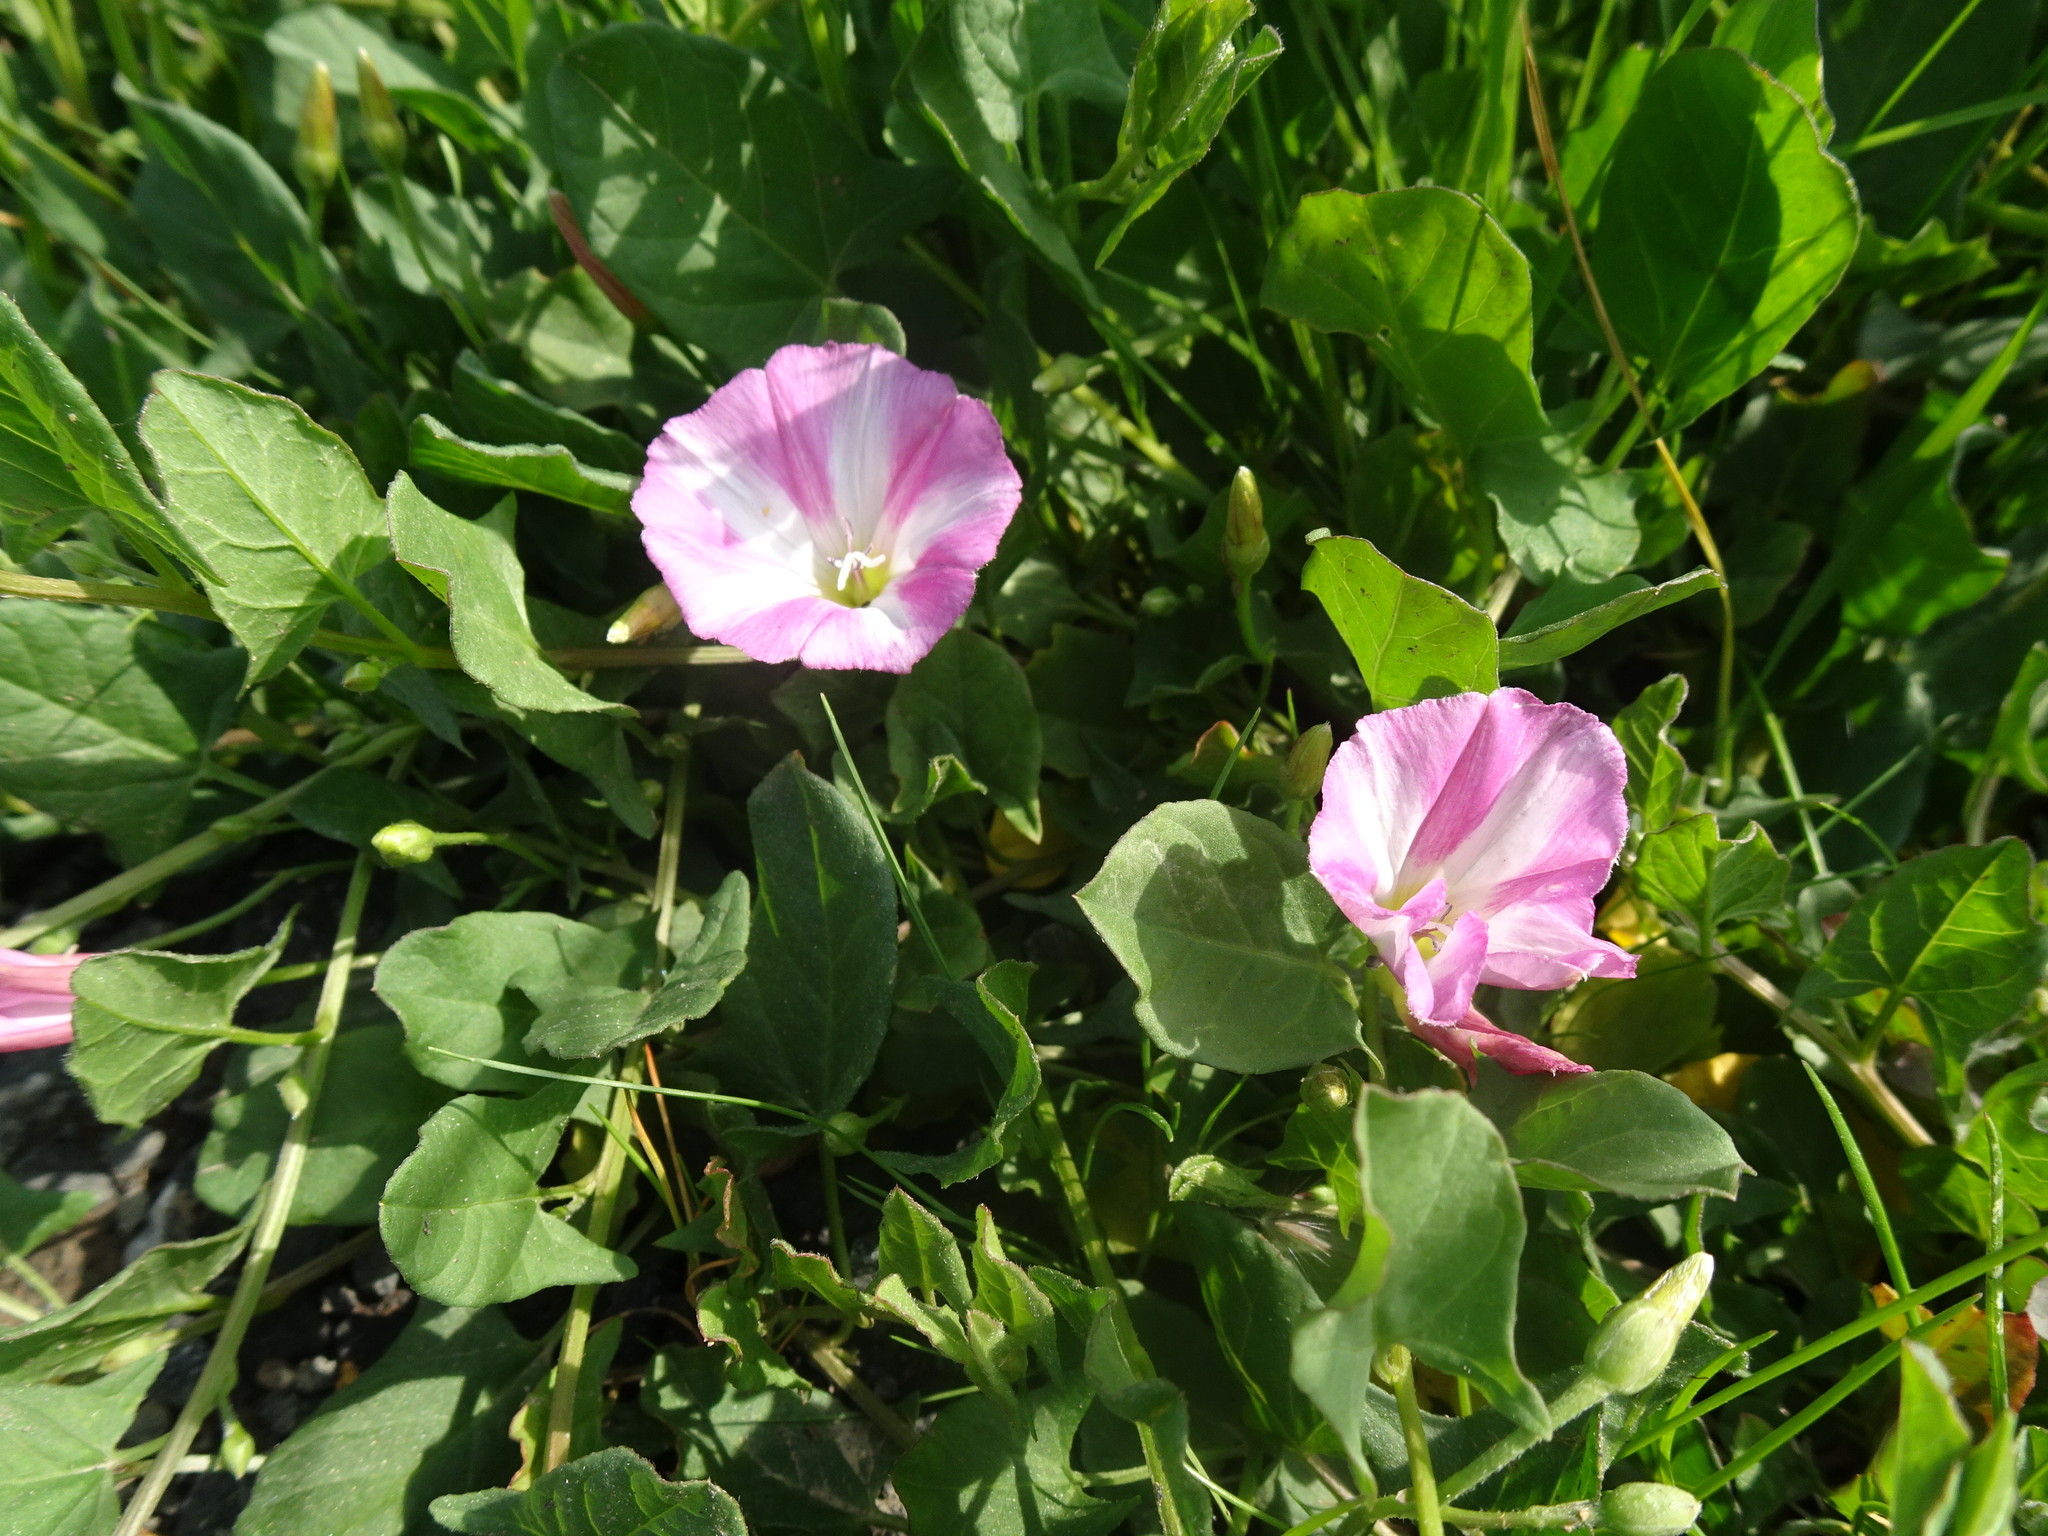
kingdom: Plantae
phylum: Tracheophyta
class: Magnoliopsida
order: Solanales
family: Convolvulaceae
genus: Convolvulus
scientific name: Convolvulus arvensis
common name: Field bindweed
